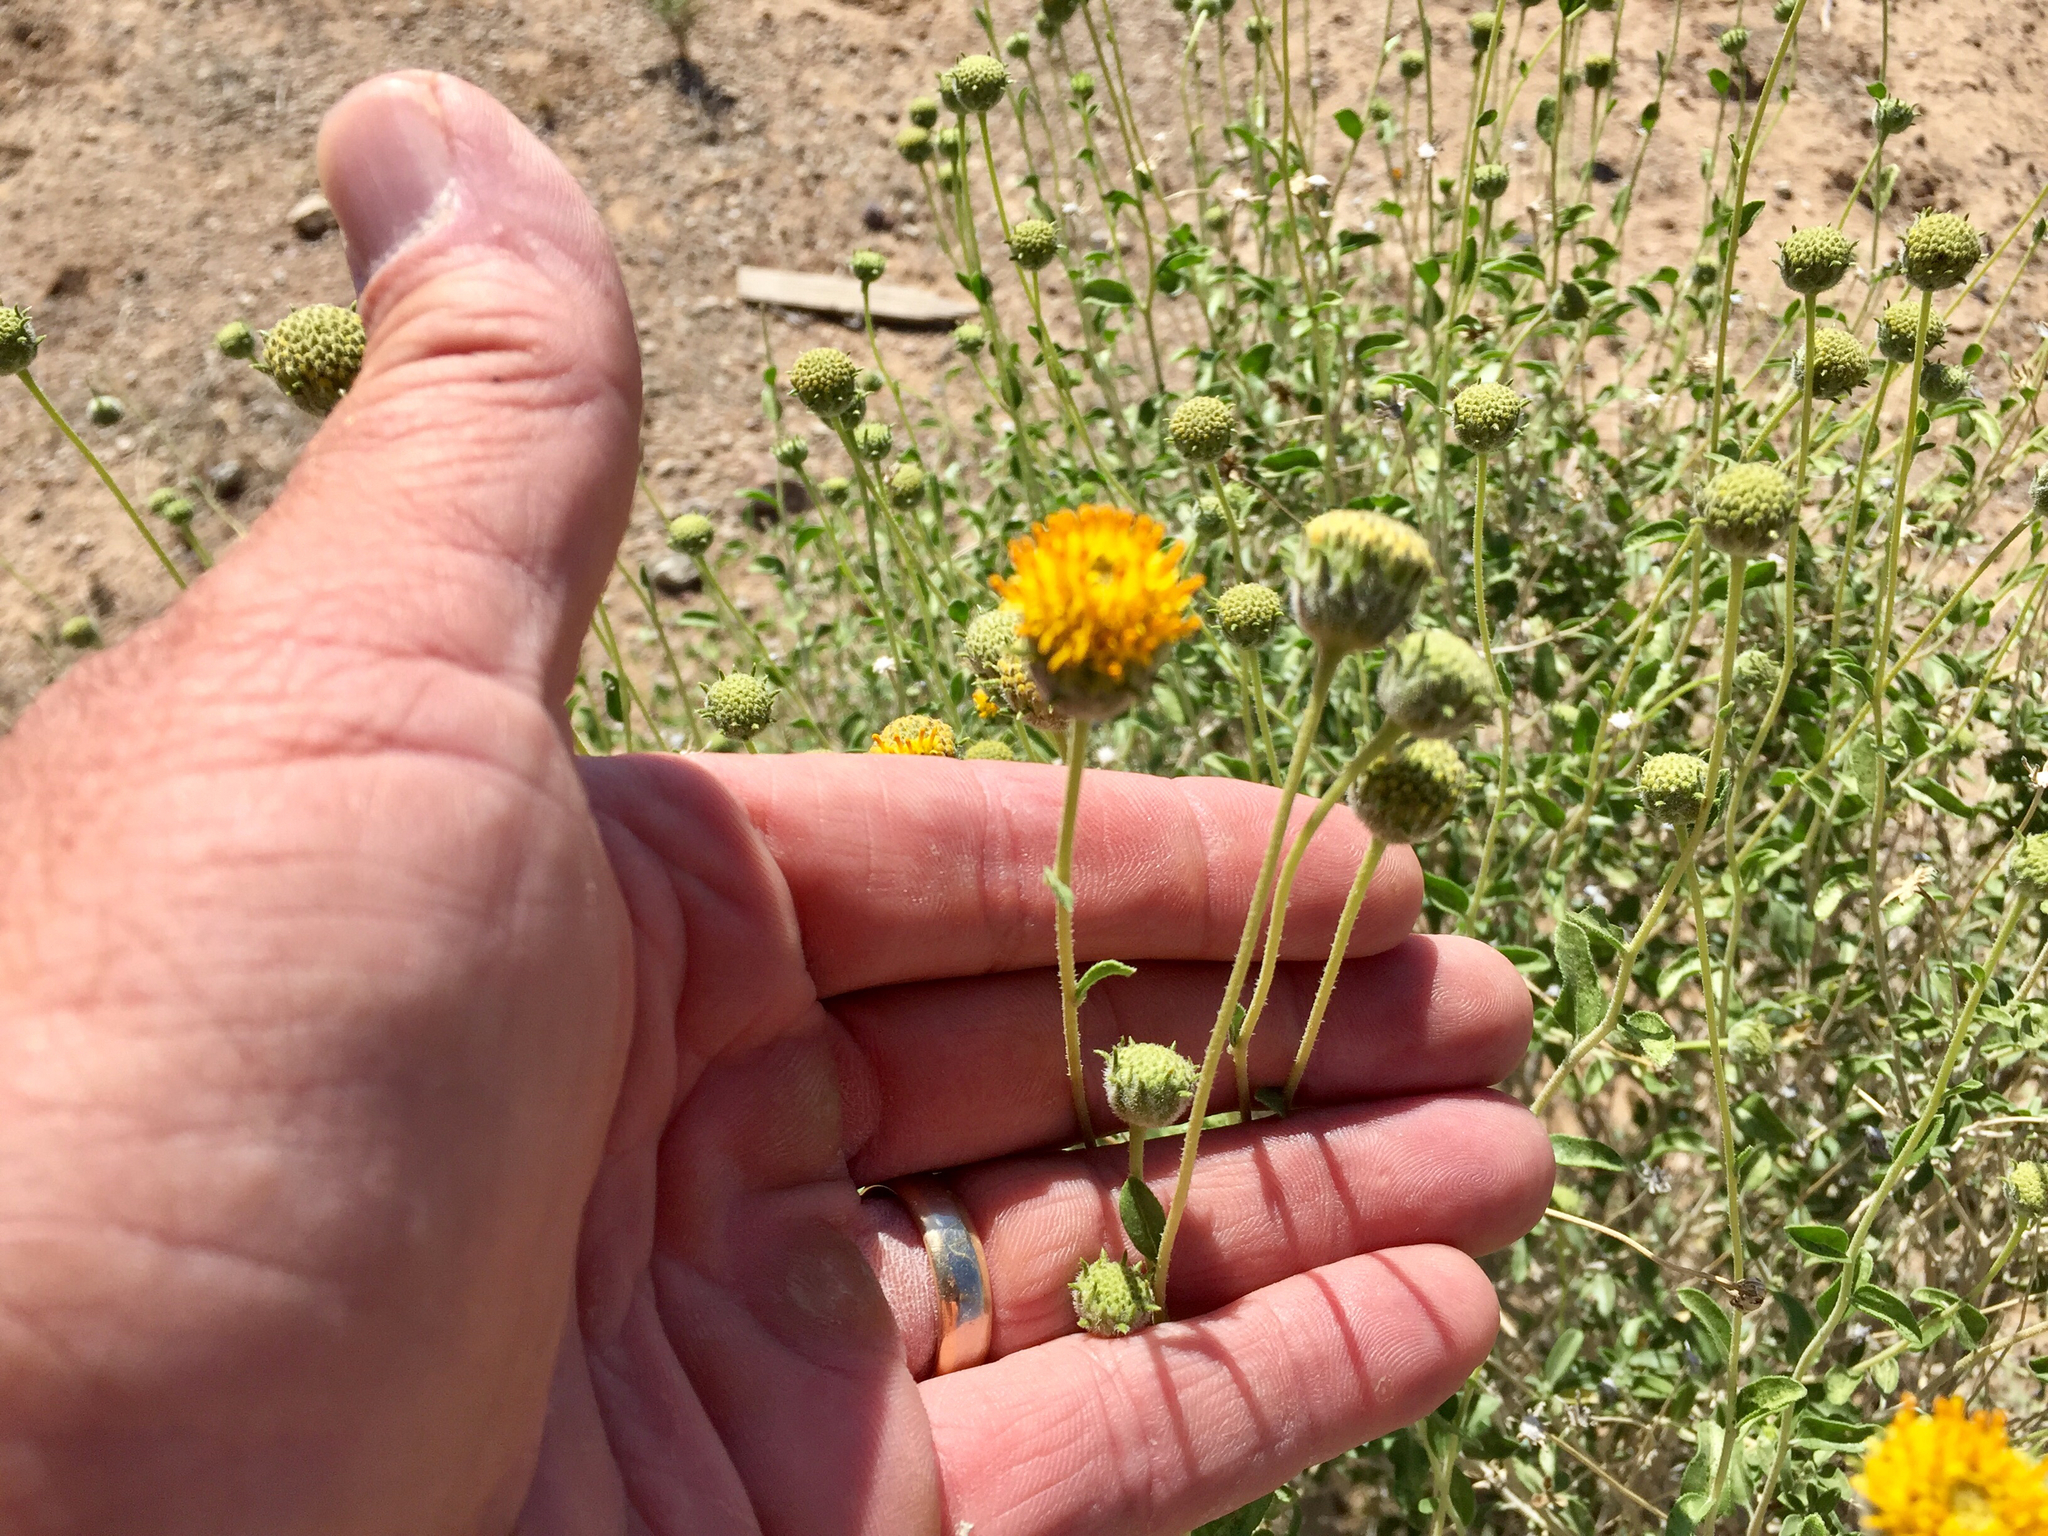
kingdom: Plantae
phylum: Tracheophyta
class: Magnoliopsida
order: Asterales
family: Asteraceae
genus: Encelia
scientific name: Encelia frutescens
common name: Bush encelia
